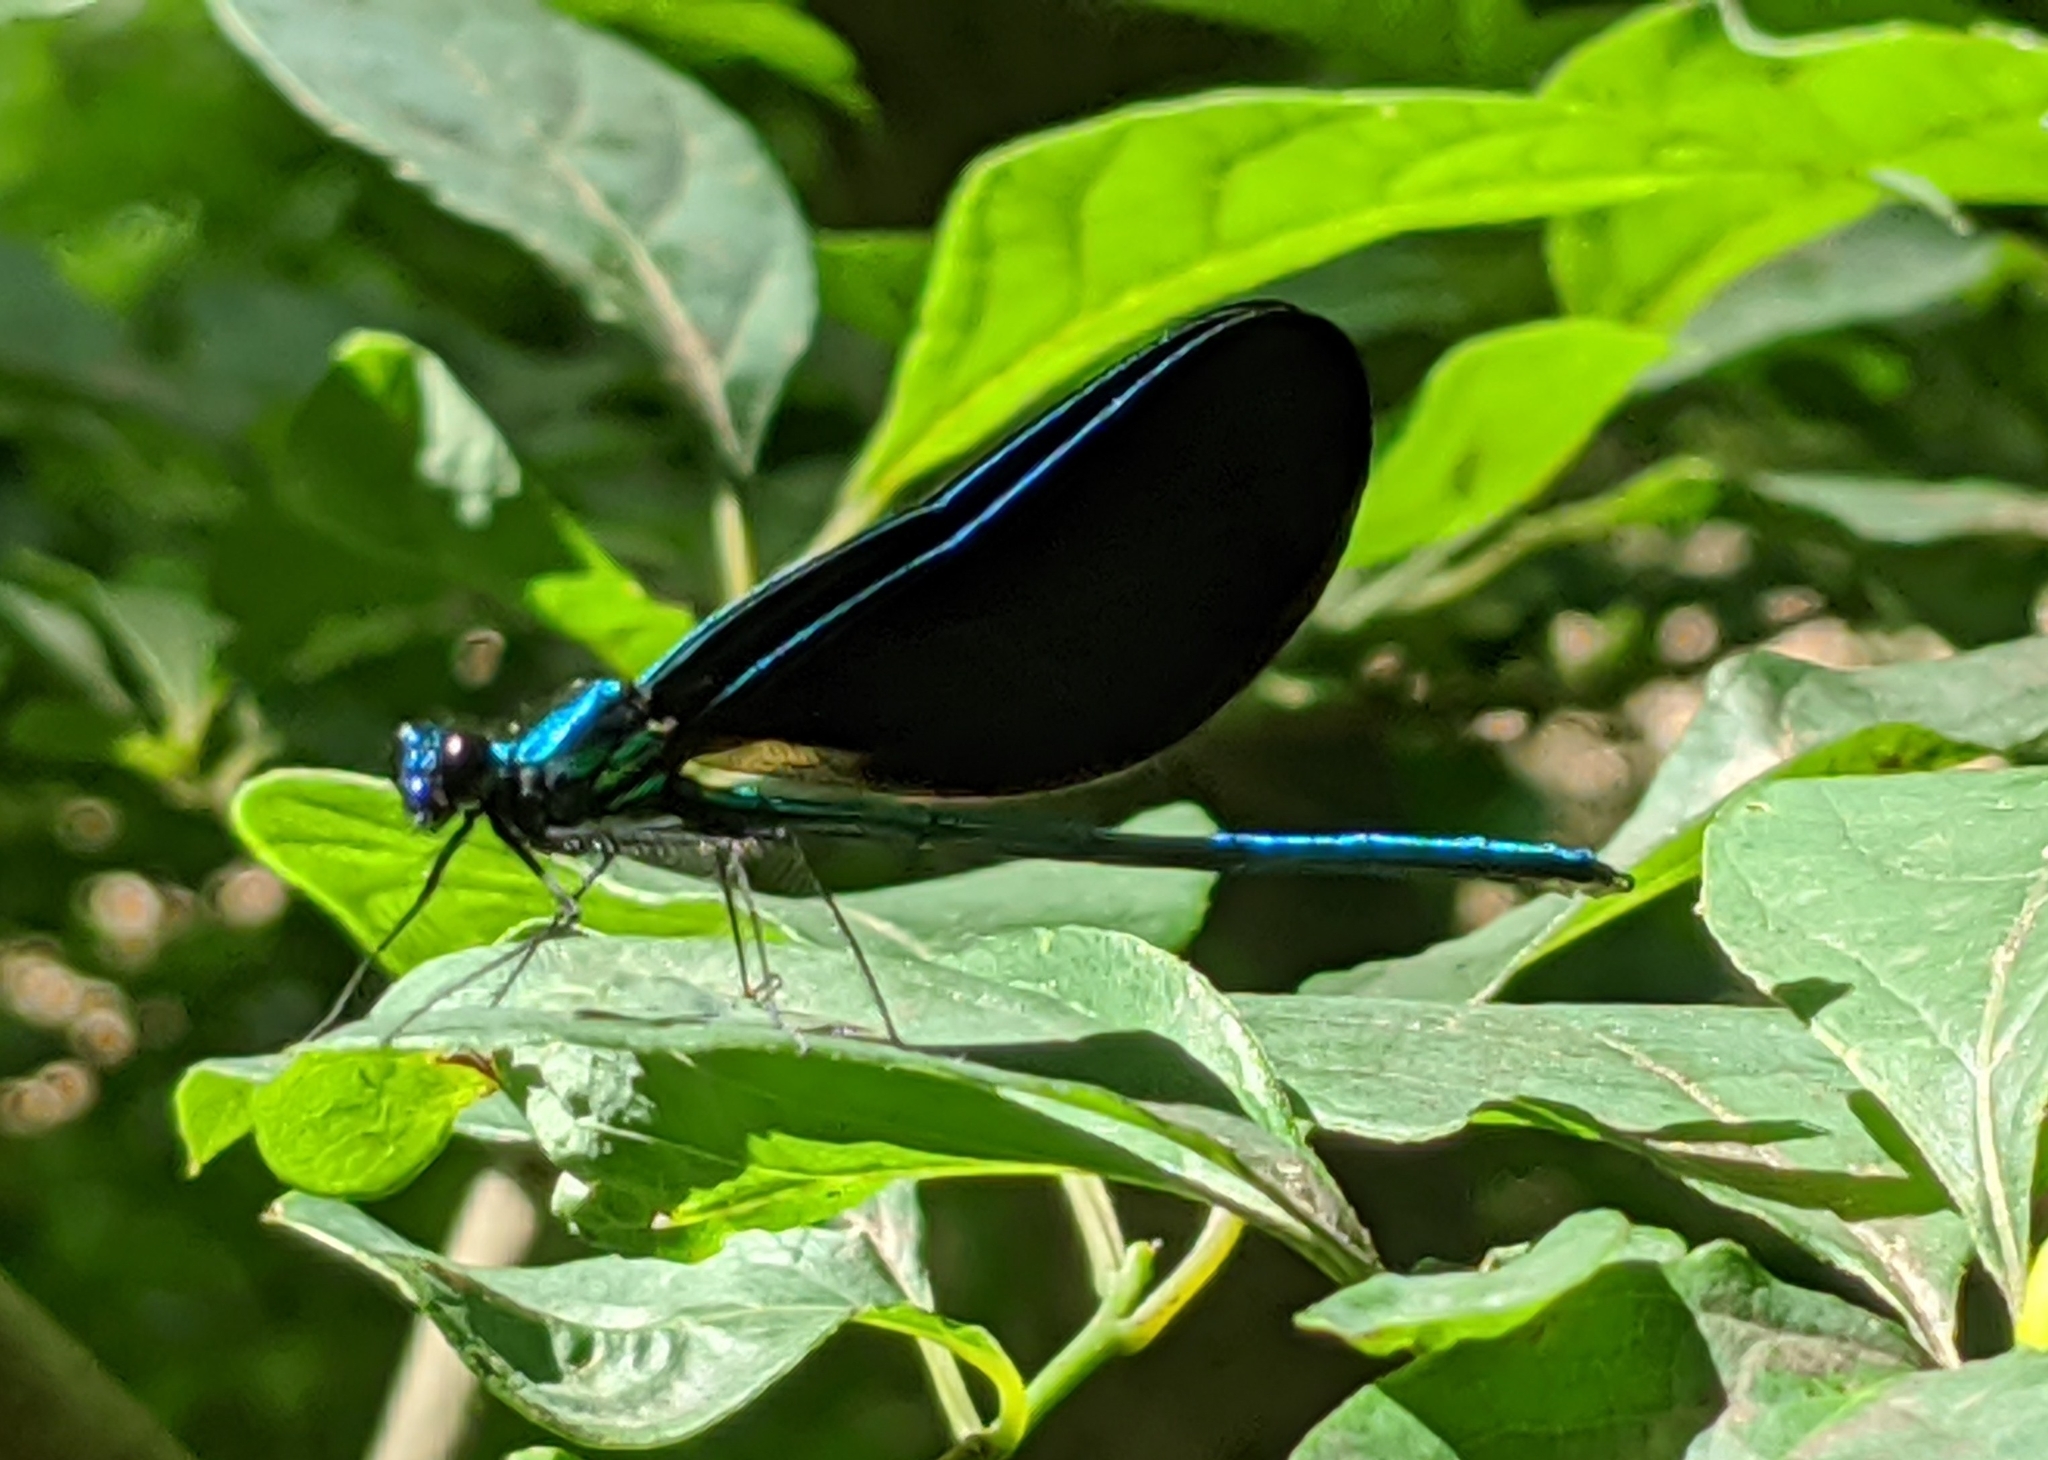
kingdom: Animalia
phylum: Arthropoda
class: Insecta
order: Odonata
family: Calopterygidae
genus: Calopteryx
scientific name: Calopteryx maculata
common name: Ebony jewelwing
